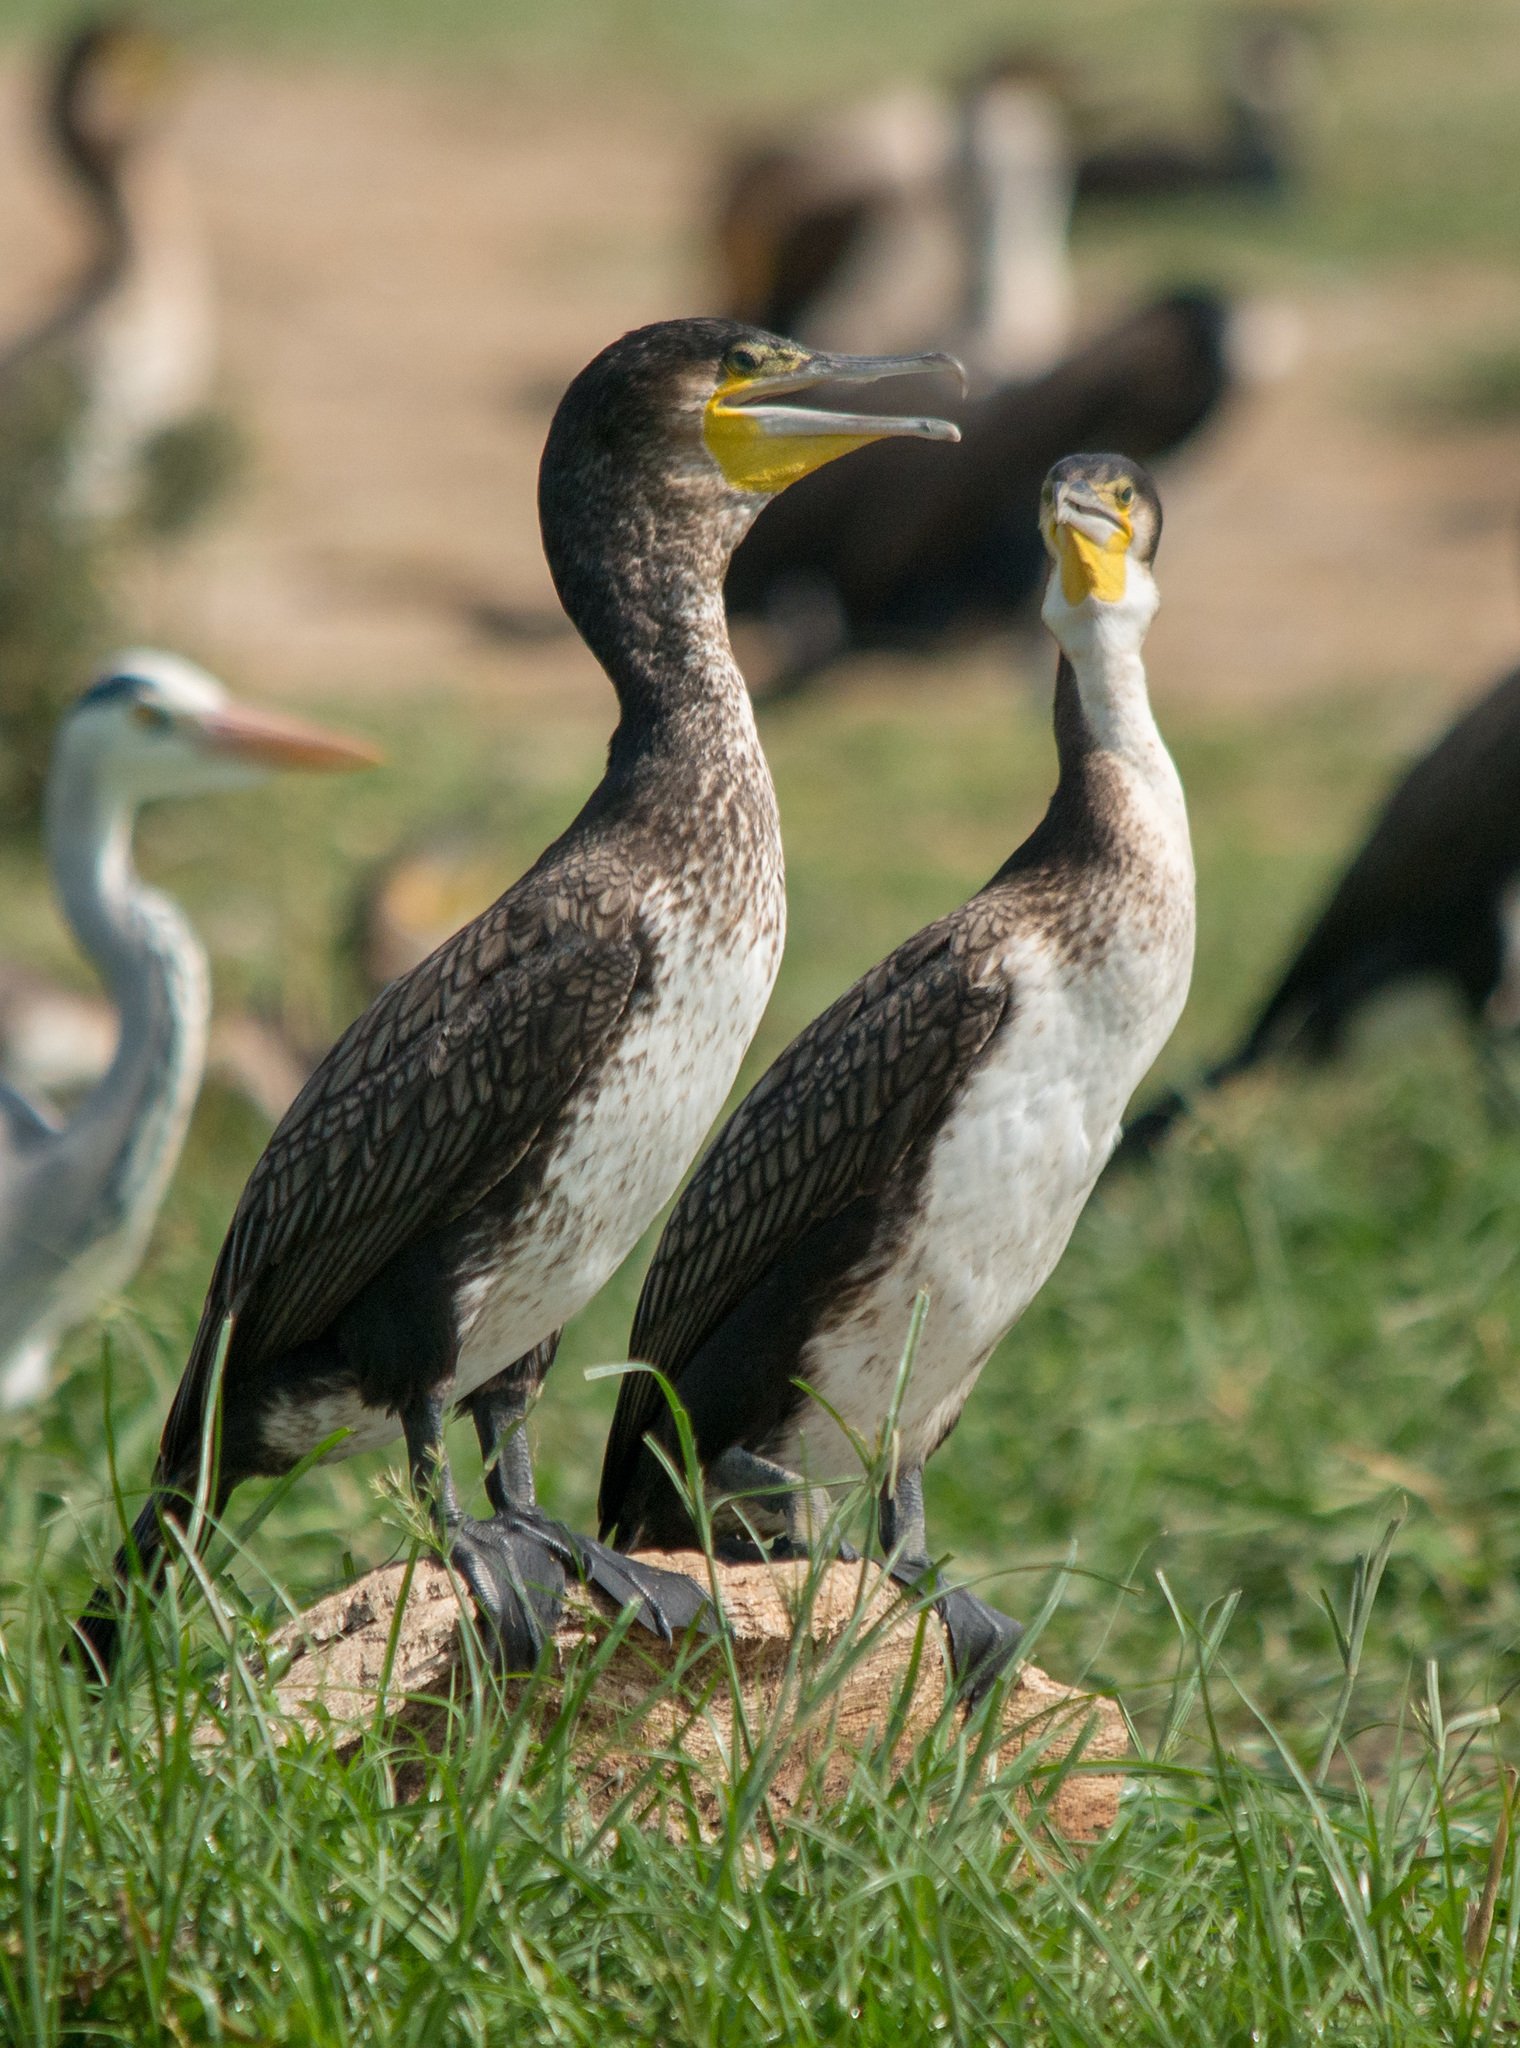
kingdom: Animalia
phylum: Chordata
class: Aves
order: Suliformes
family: Phalacrocoracidae
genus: Phalacrocorax
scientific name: Phalacrocorax carbo
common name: Great cormorant
